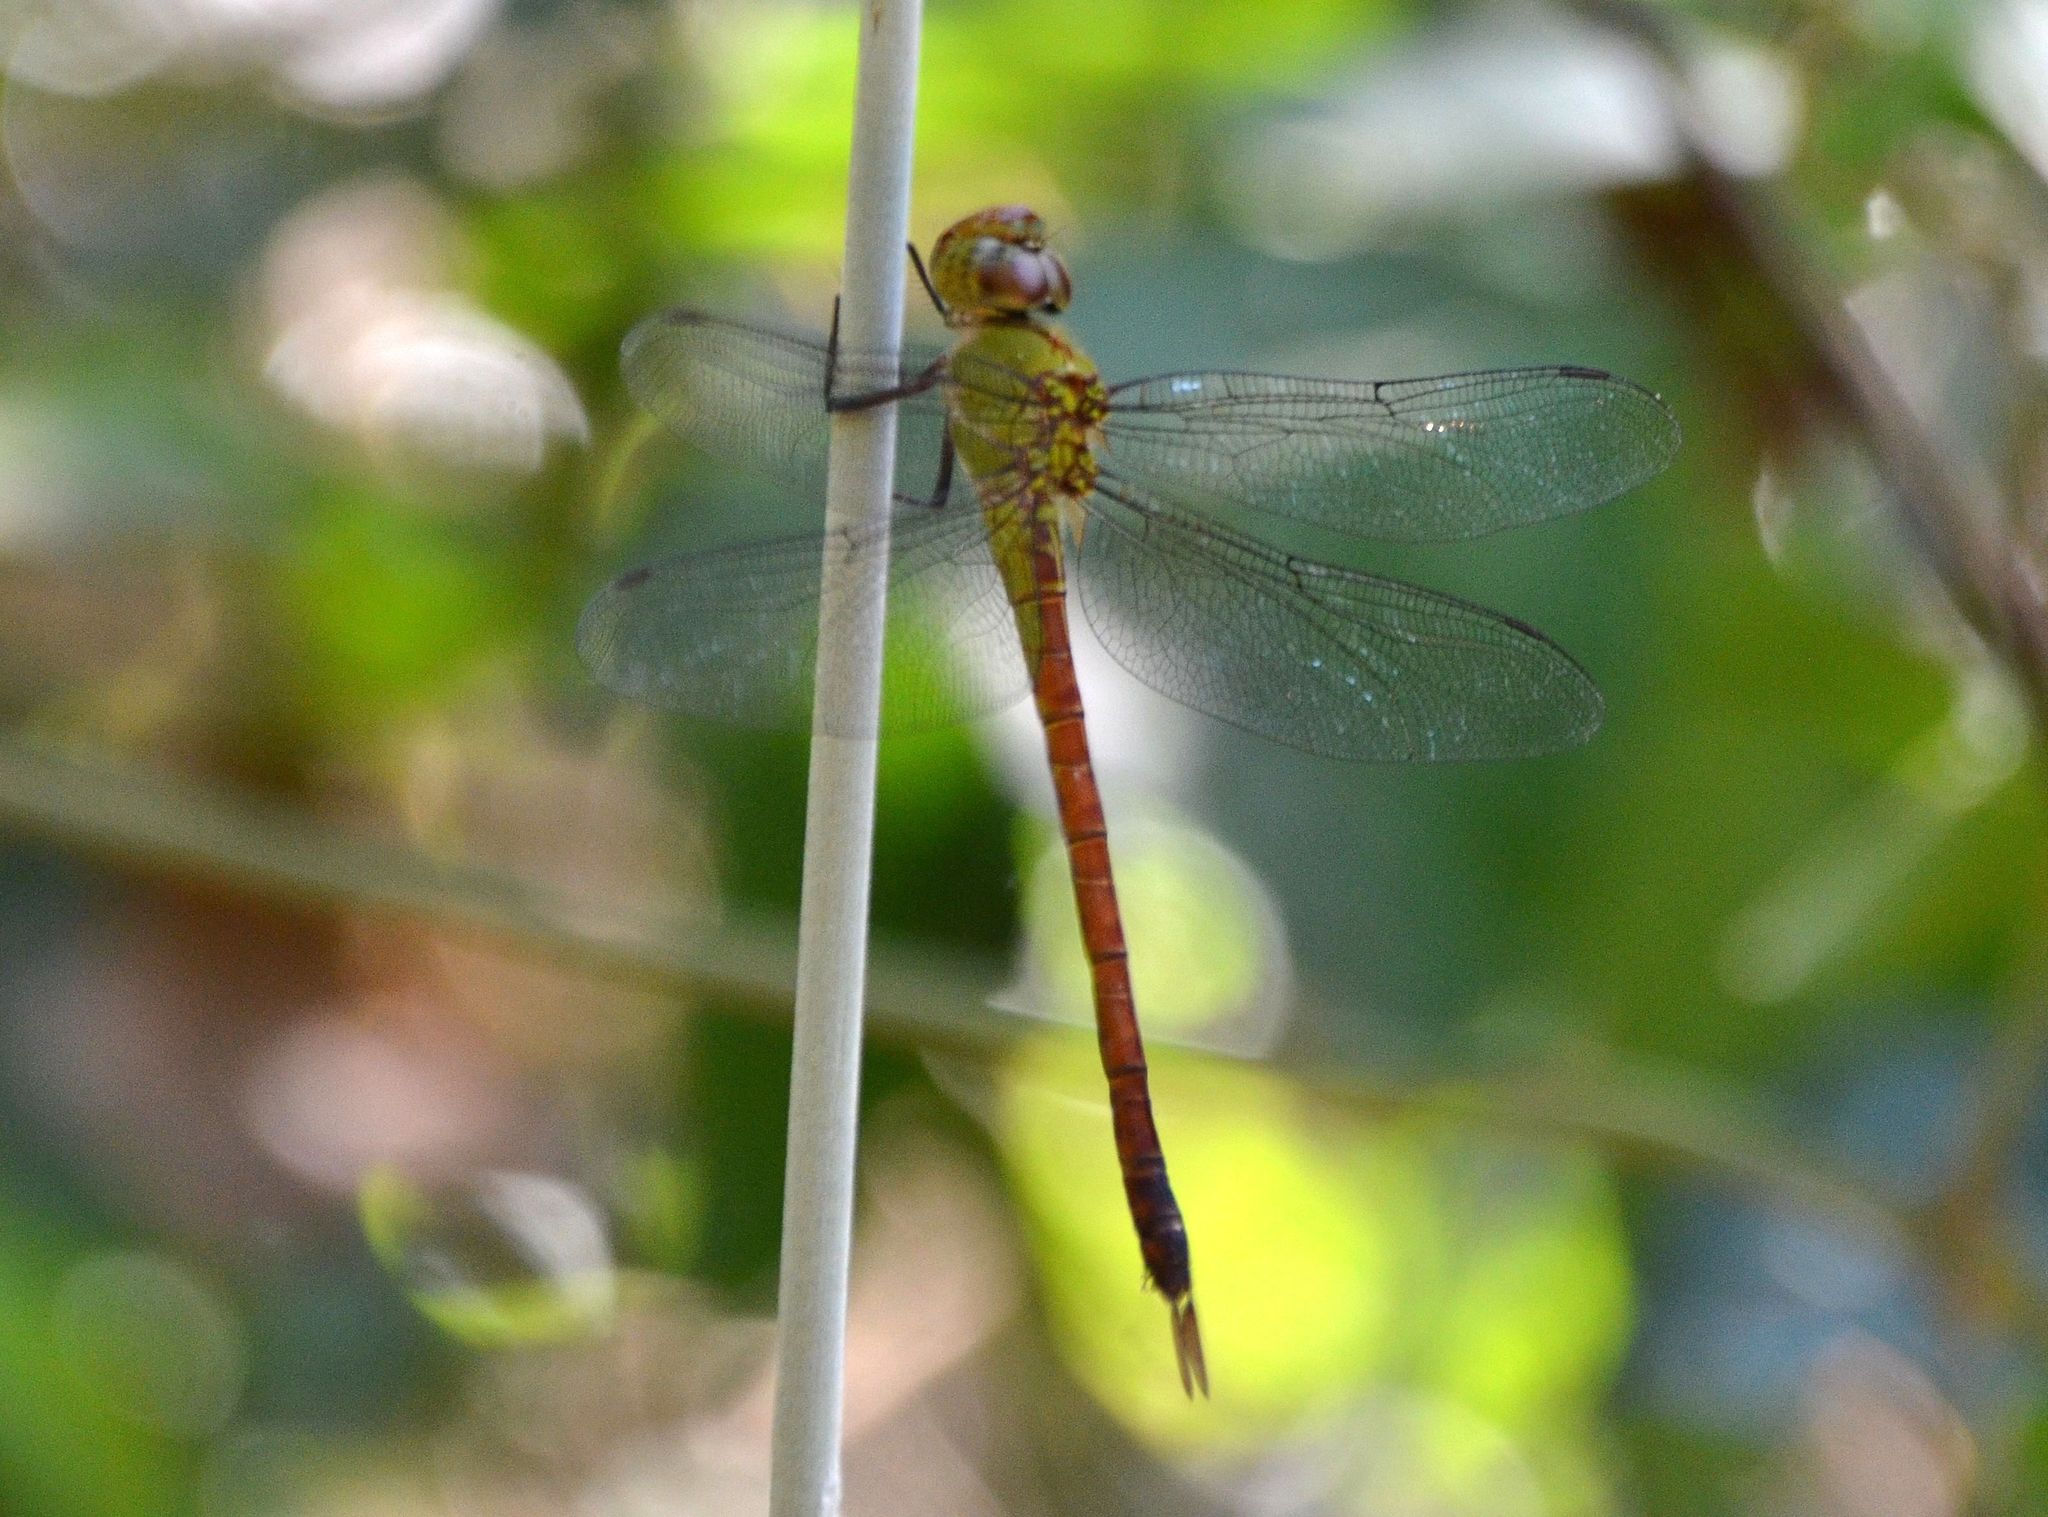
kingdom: Animalia
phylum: Arthropoda
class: Insecta
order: Odonata
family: Aeshnidae
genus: Coryphaeschna
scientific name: Coryphaeschna diapyra
